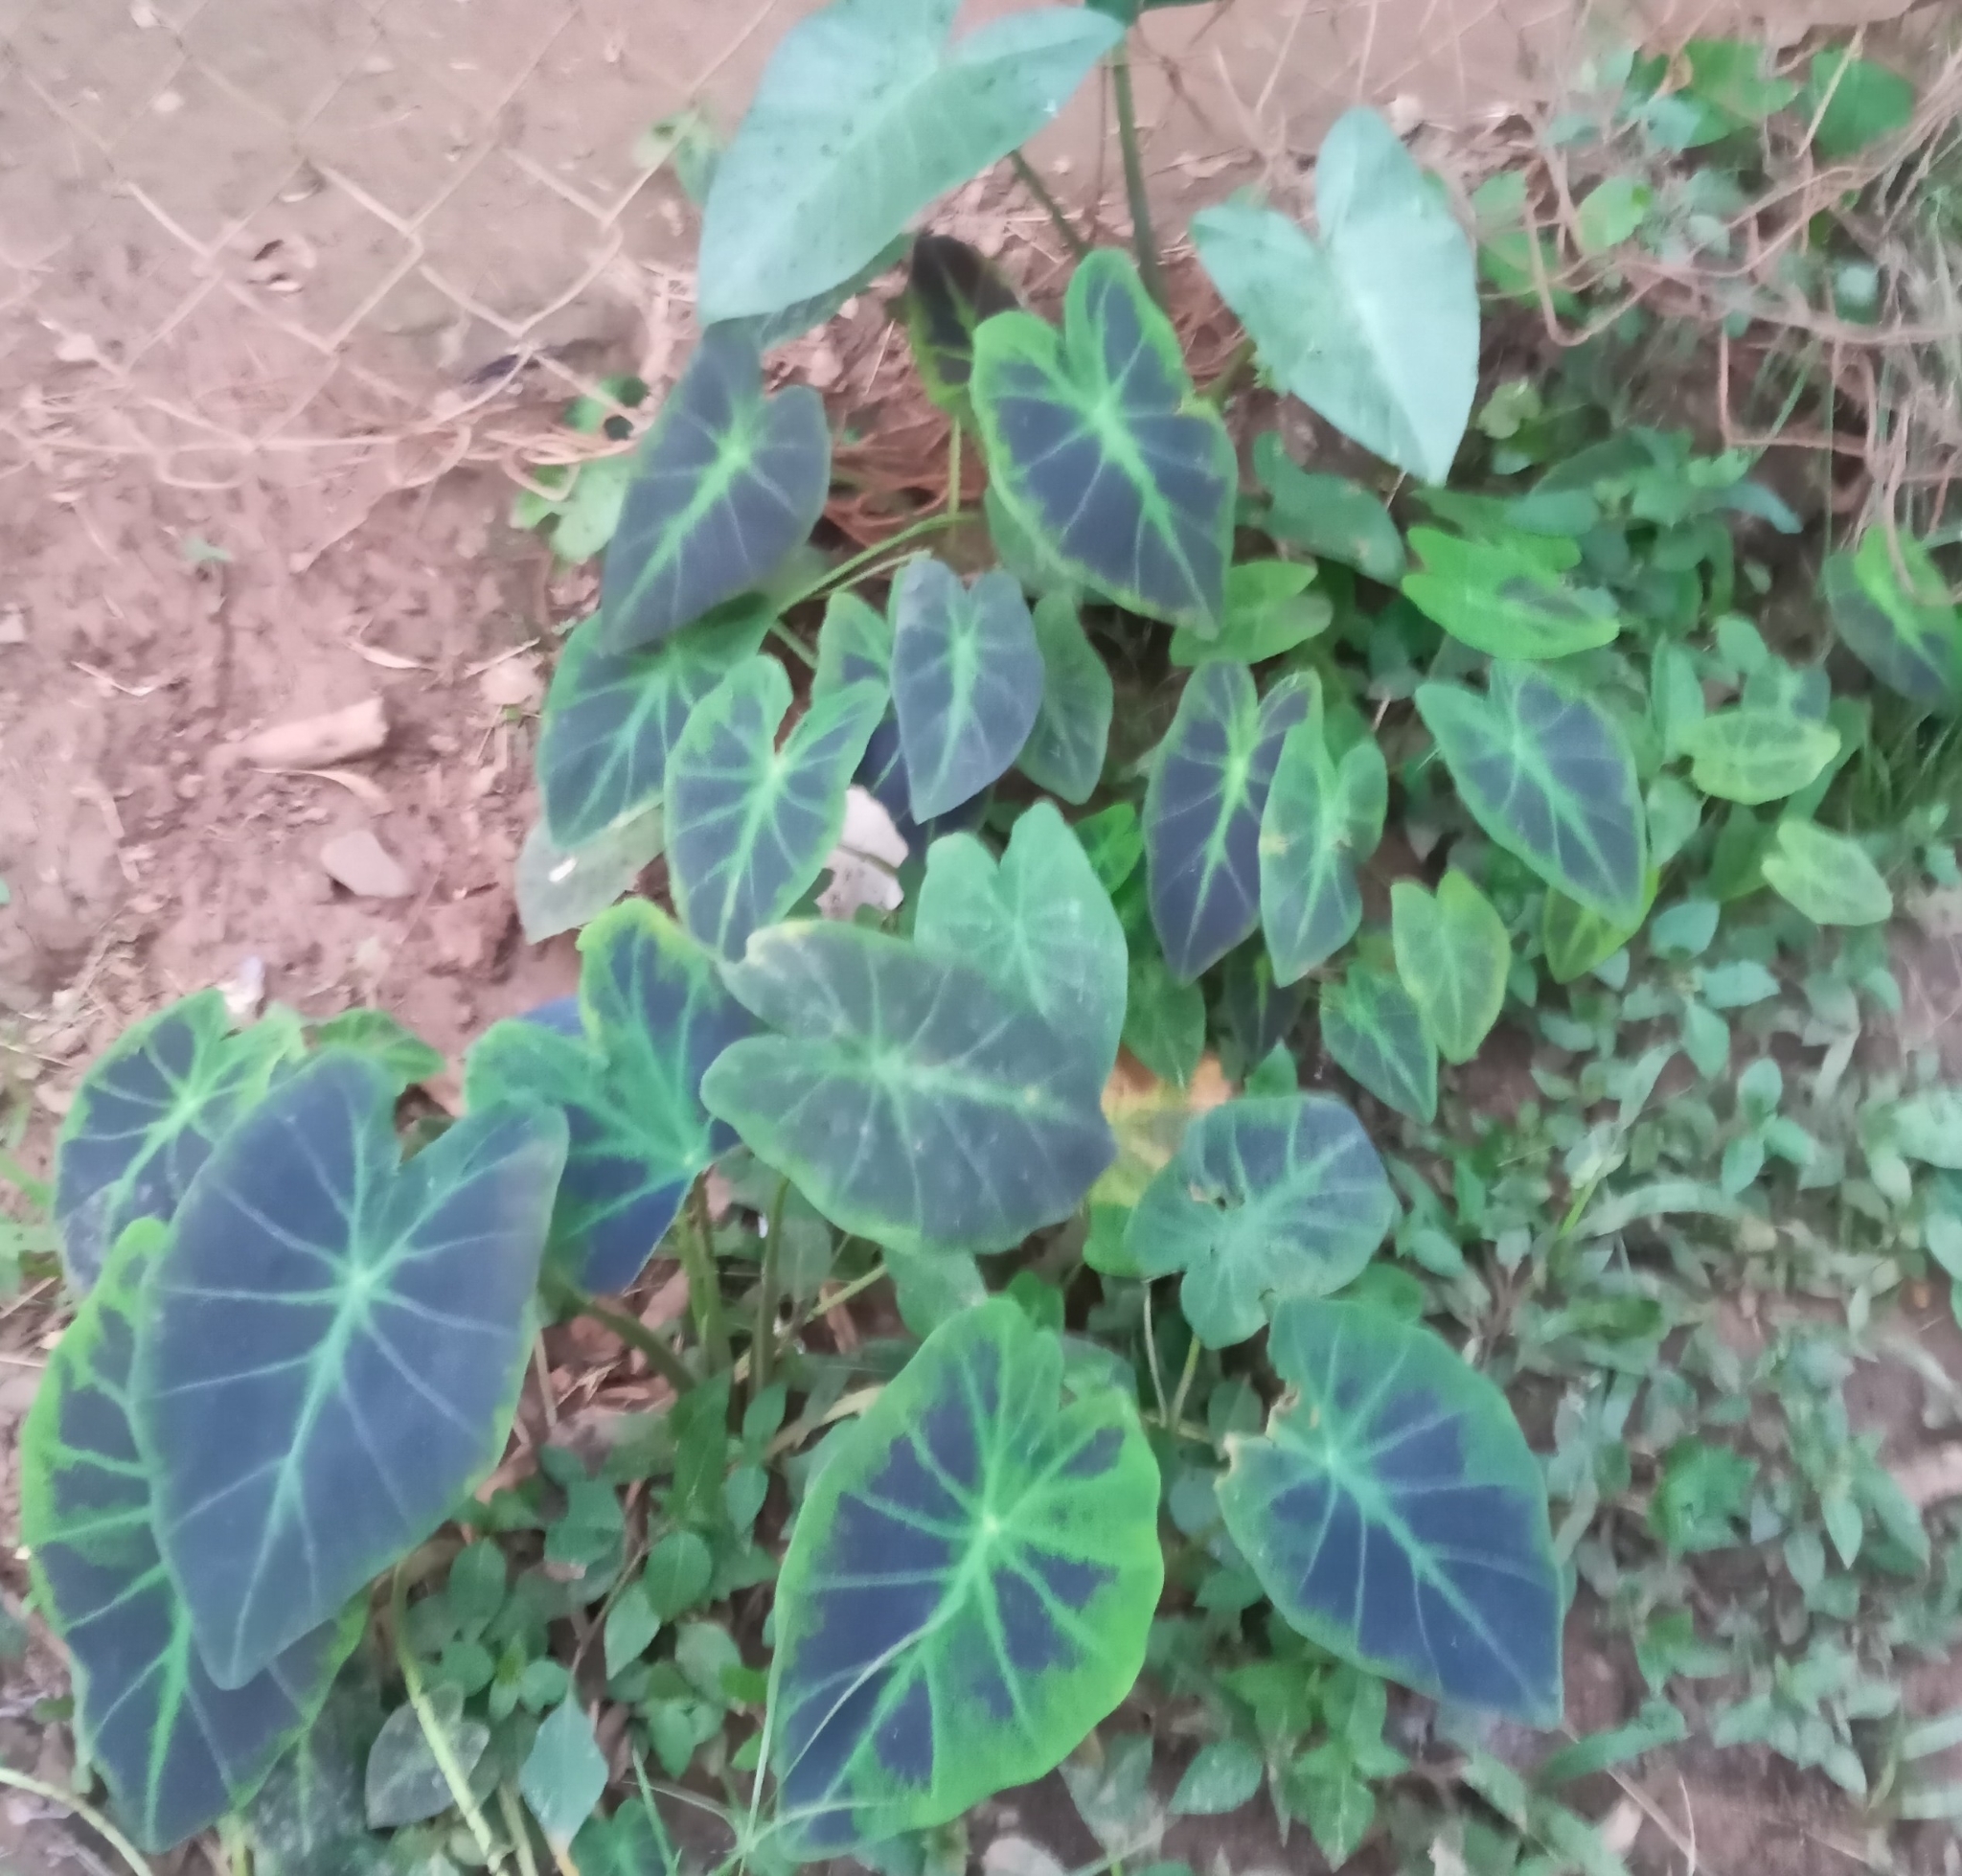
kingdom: Plantae
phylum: Tracheophyta
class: Liliopsida
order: Alismatales
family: Araceae
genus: Caladium
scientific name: Caladium bicolor
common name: Artist's pallet
